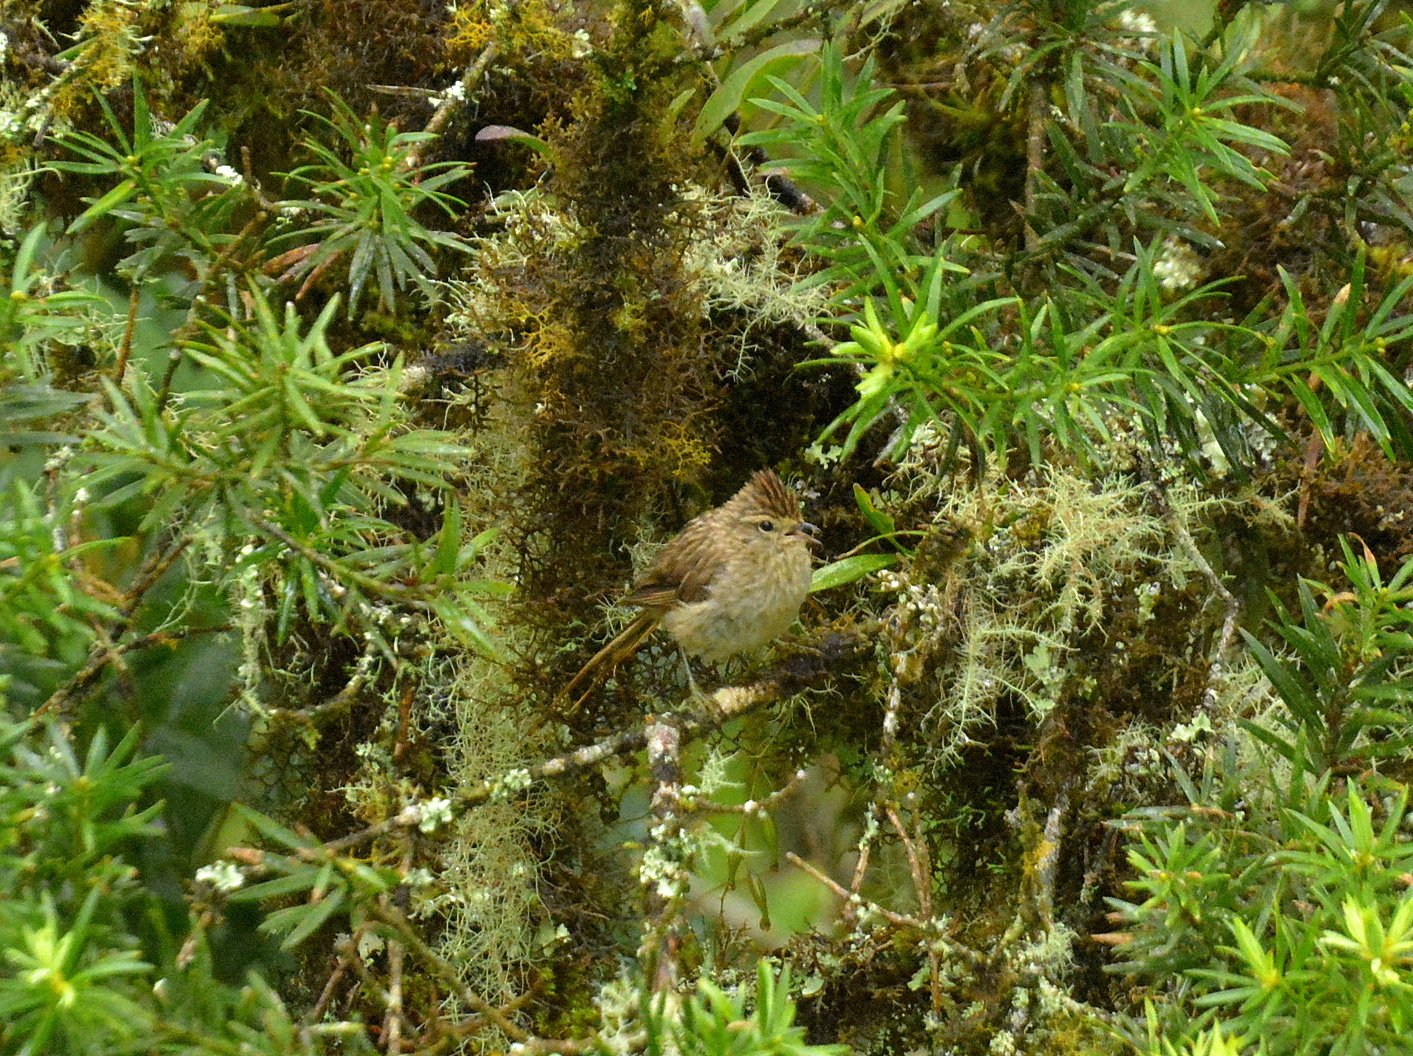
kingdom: Animalia
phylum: Chordata
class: Aves
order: Passeriformes
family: Furnariidae
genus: Leptasthenura
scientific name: Leptasthenura striolata
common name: Striolated tit-spinetail
